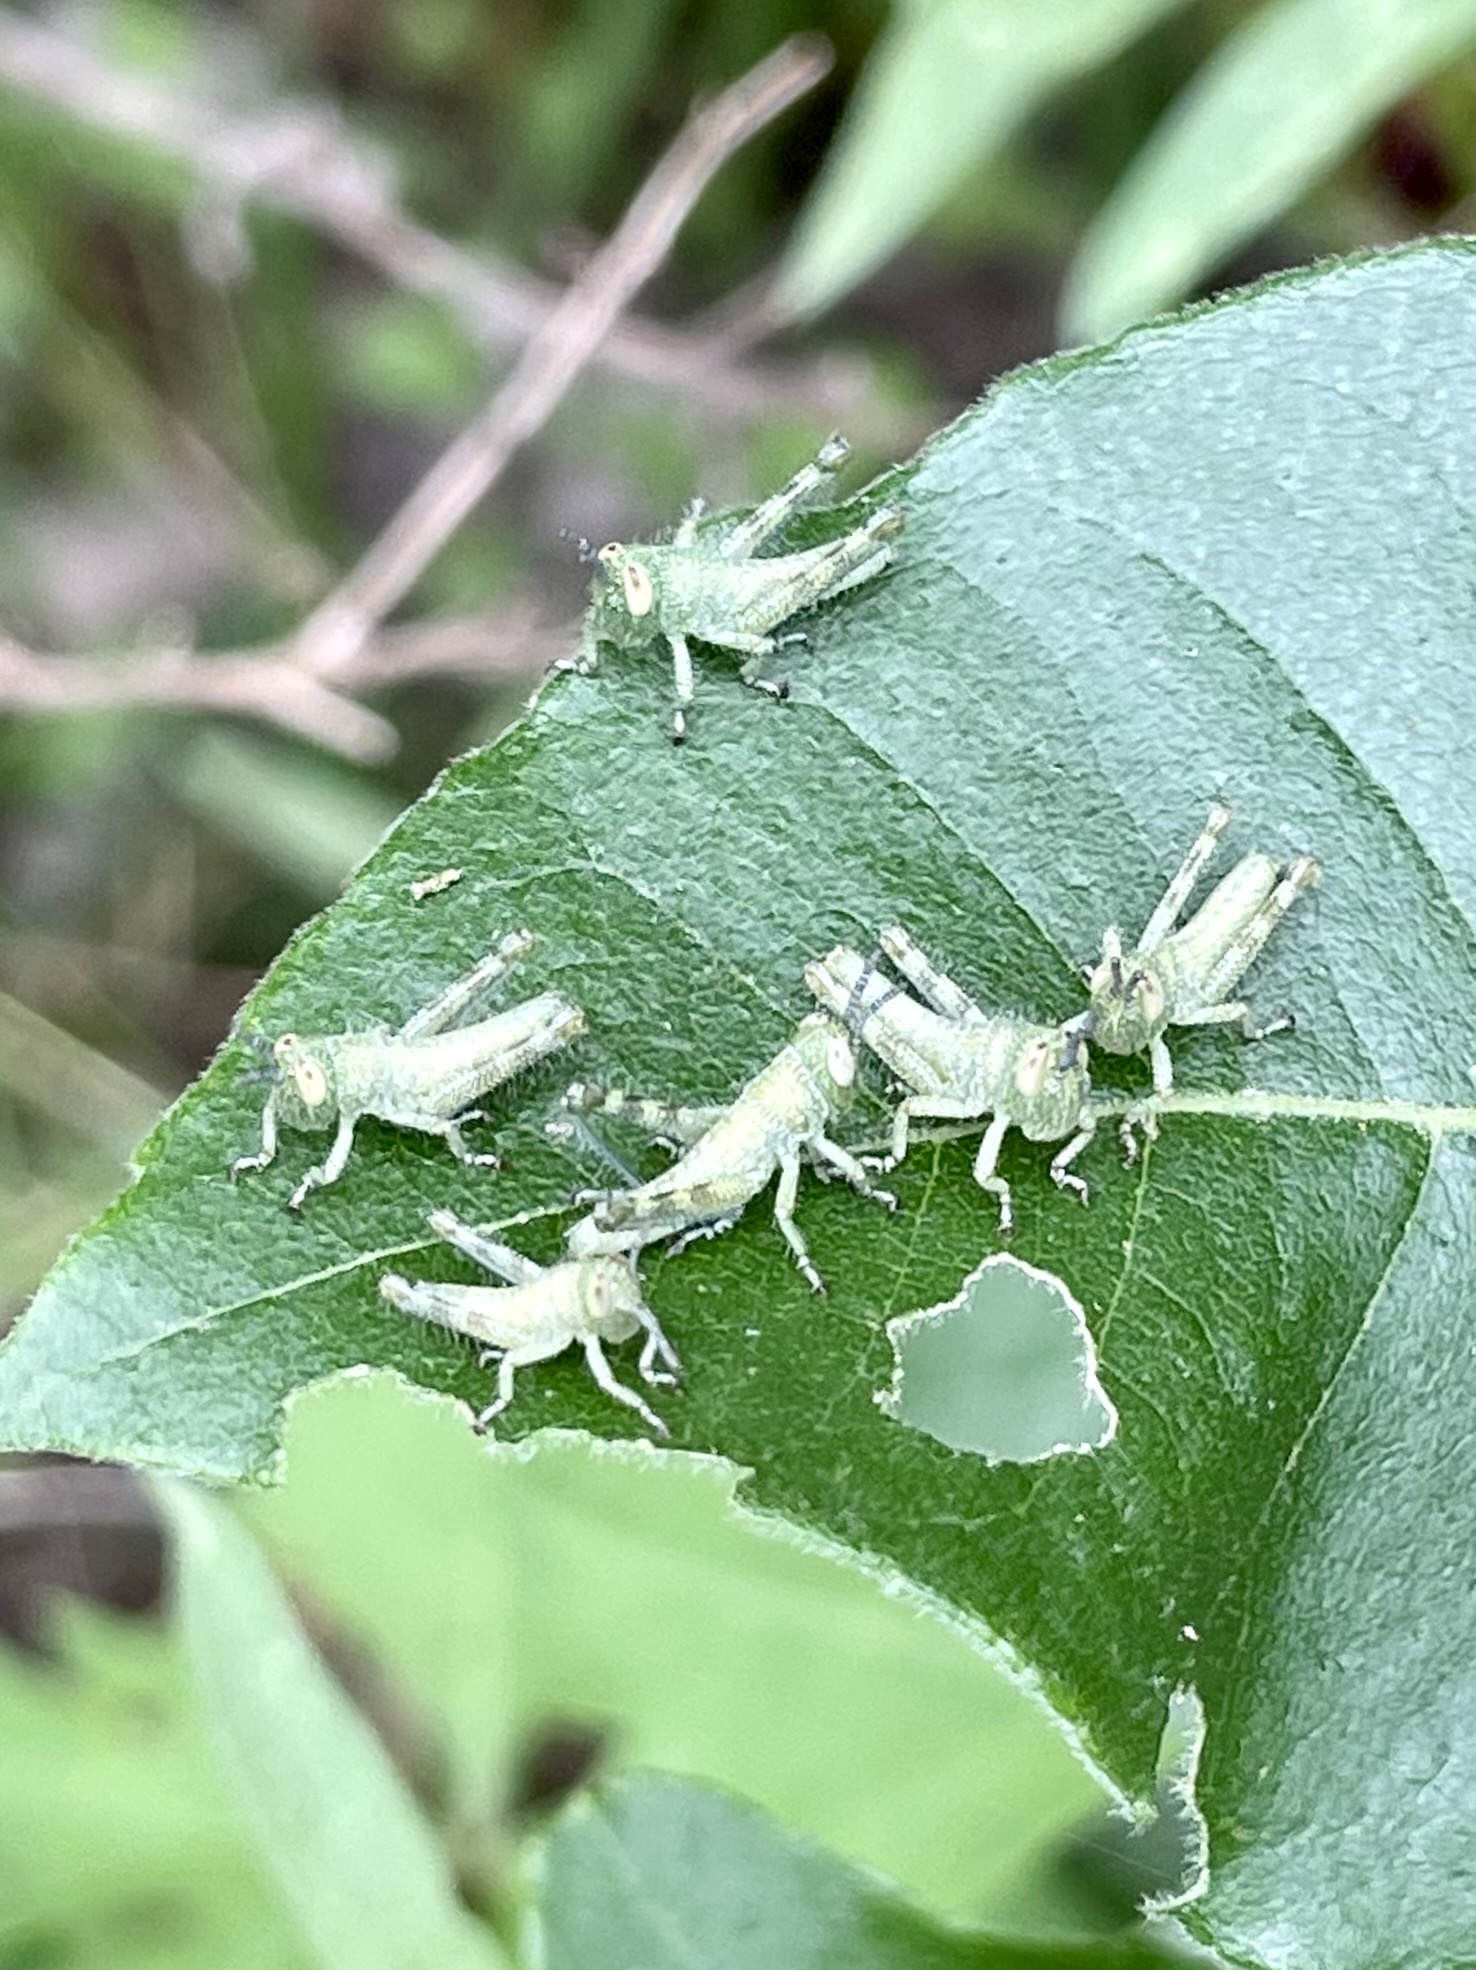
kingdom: Animalia
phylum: Arthropoda
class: Insecta
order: Orthoptera
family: Acrididae
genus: Schistocerca
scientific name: Schistocerca lineata
